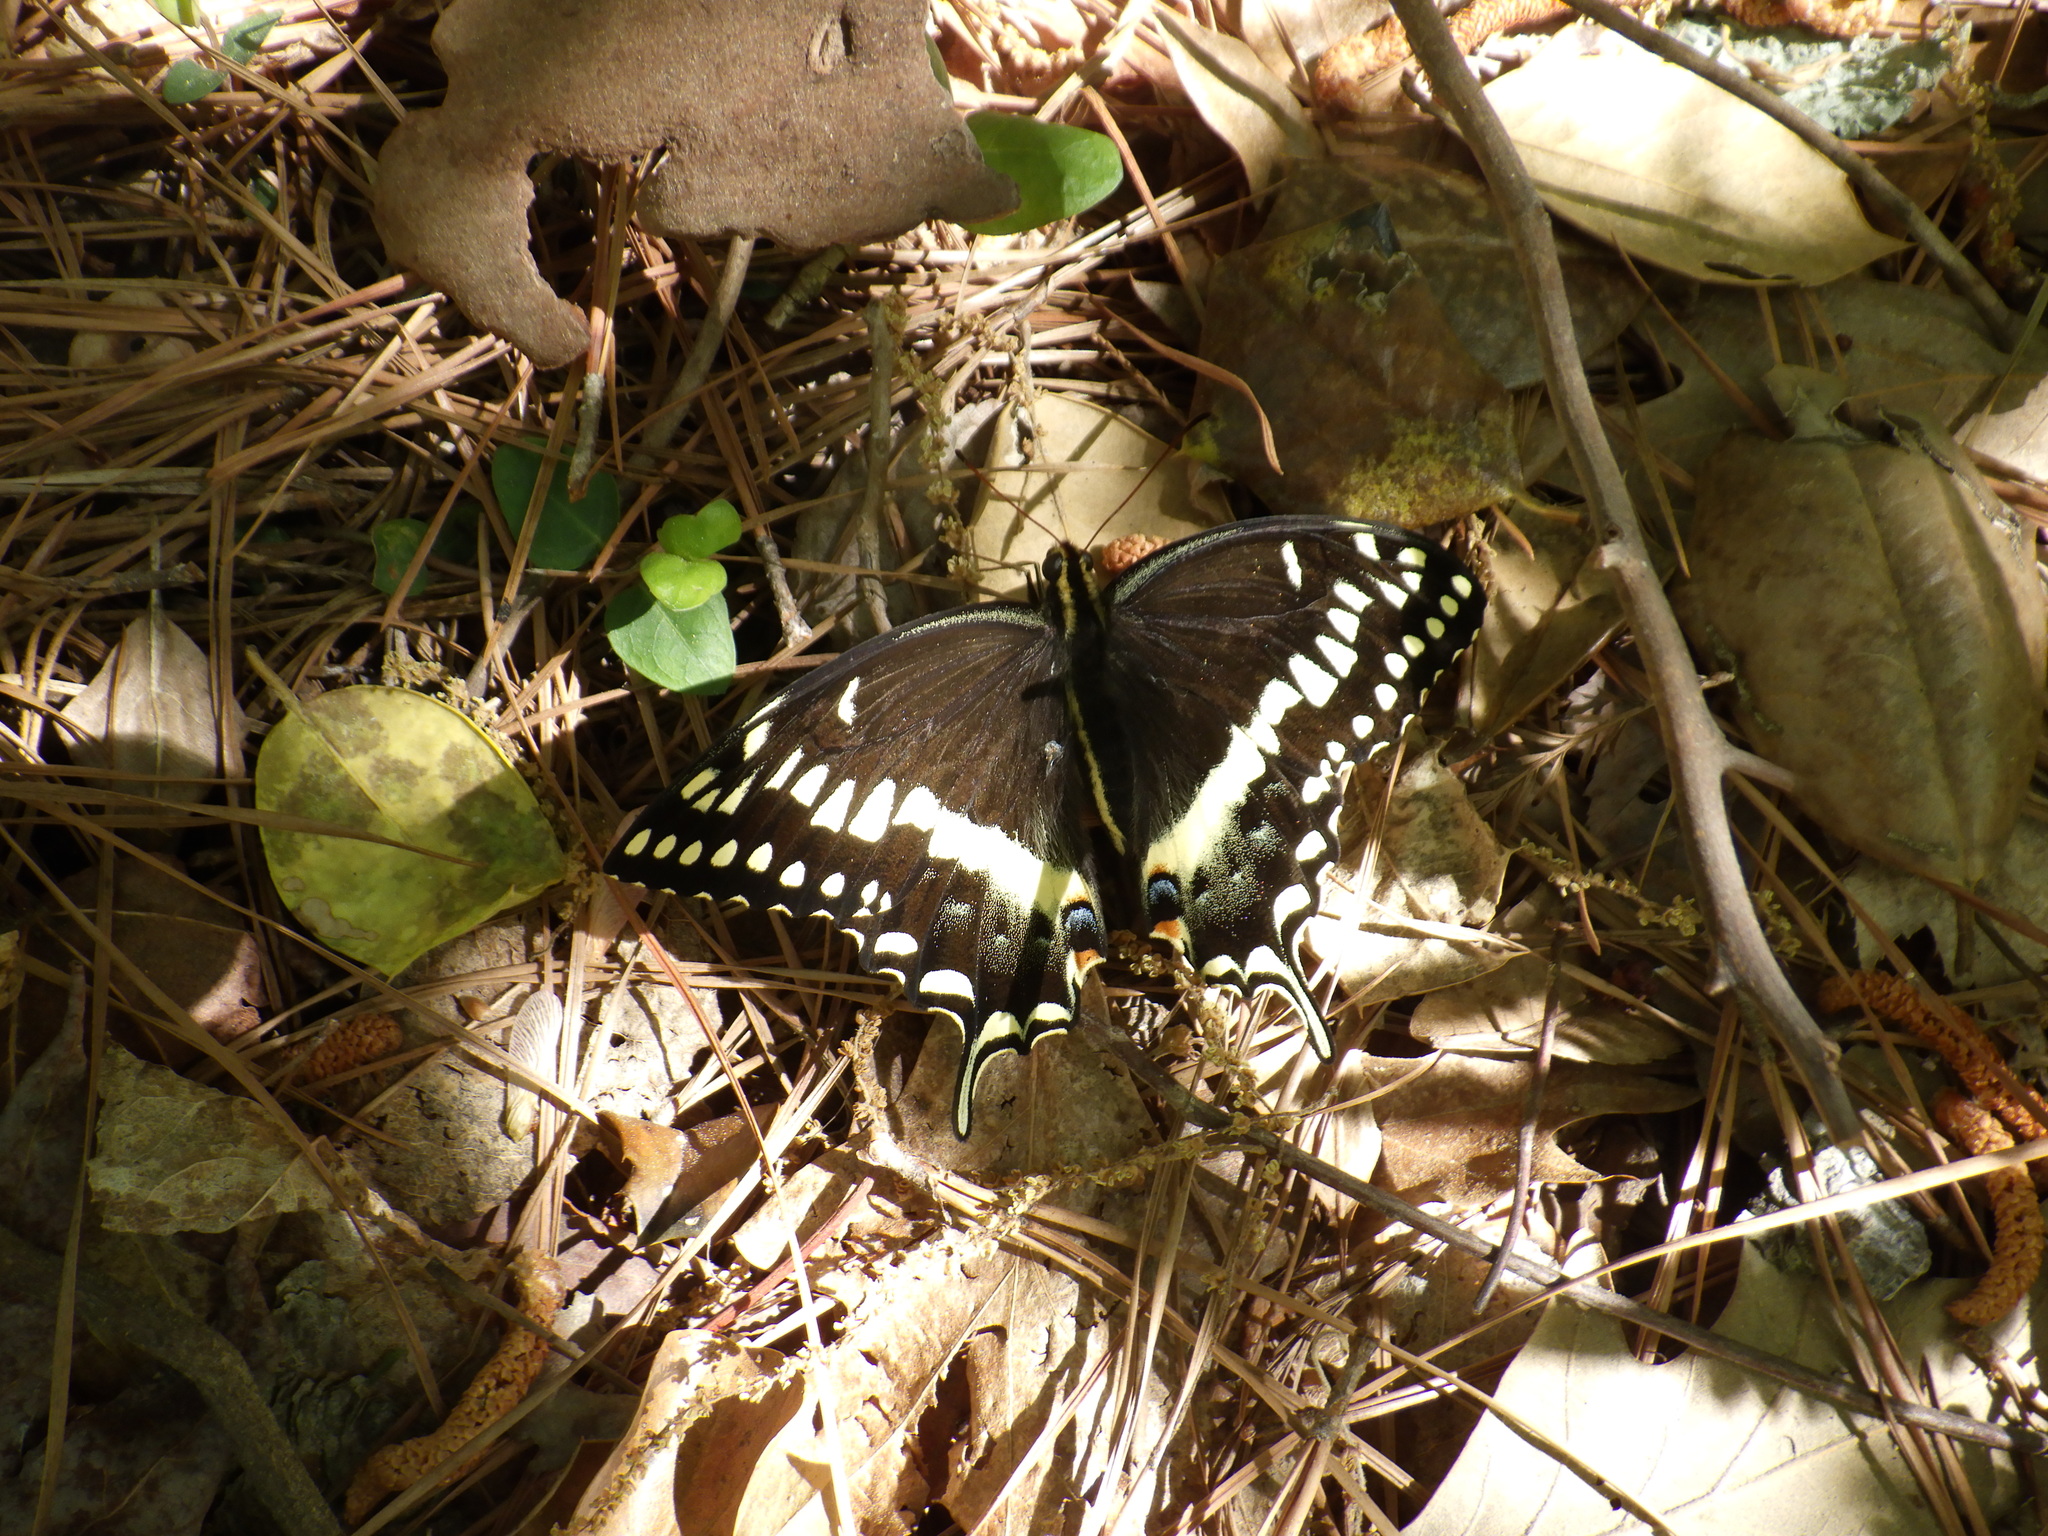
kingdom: Animalia
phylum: Arthropoda
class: Insecta
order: Lepidoptera
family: Papilionidae
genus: Papilio
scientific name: Papilio palamedes
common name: Palamedes swallowtail
